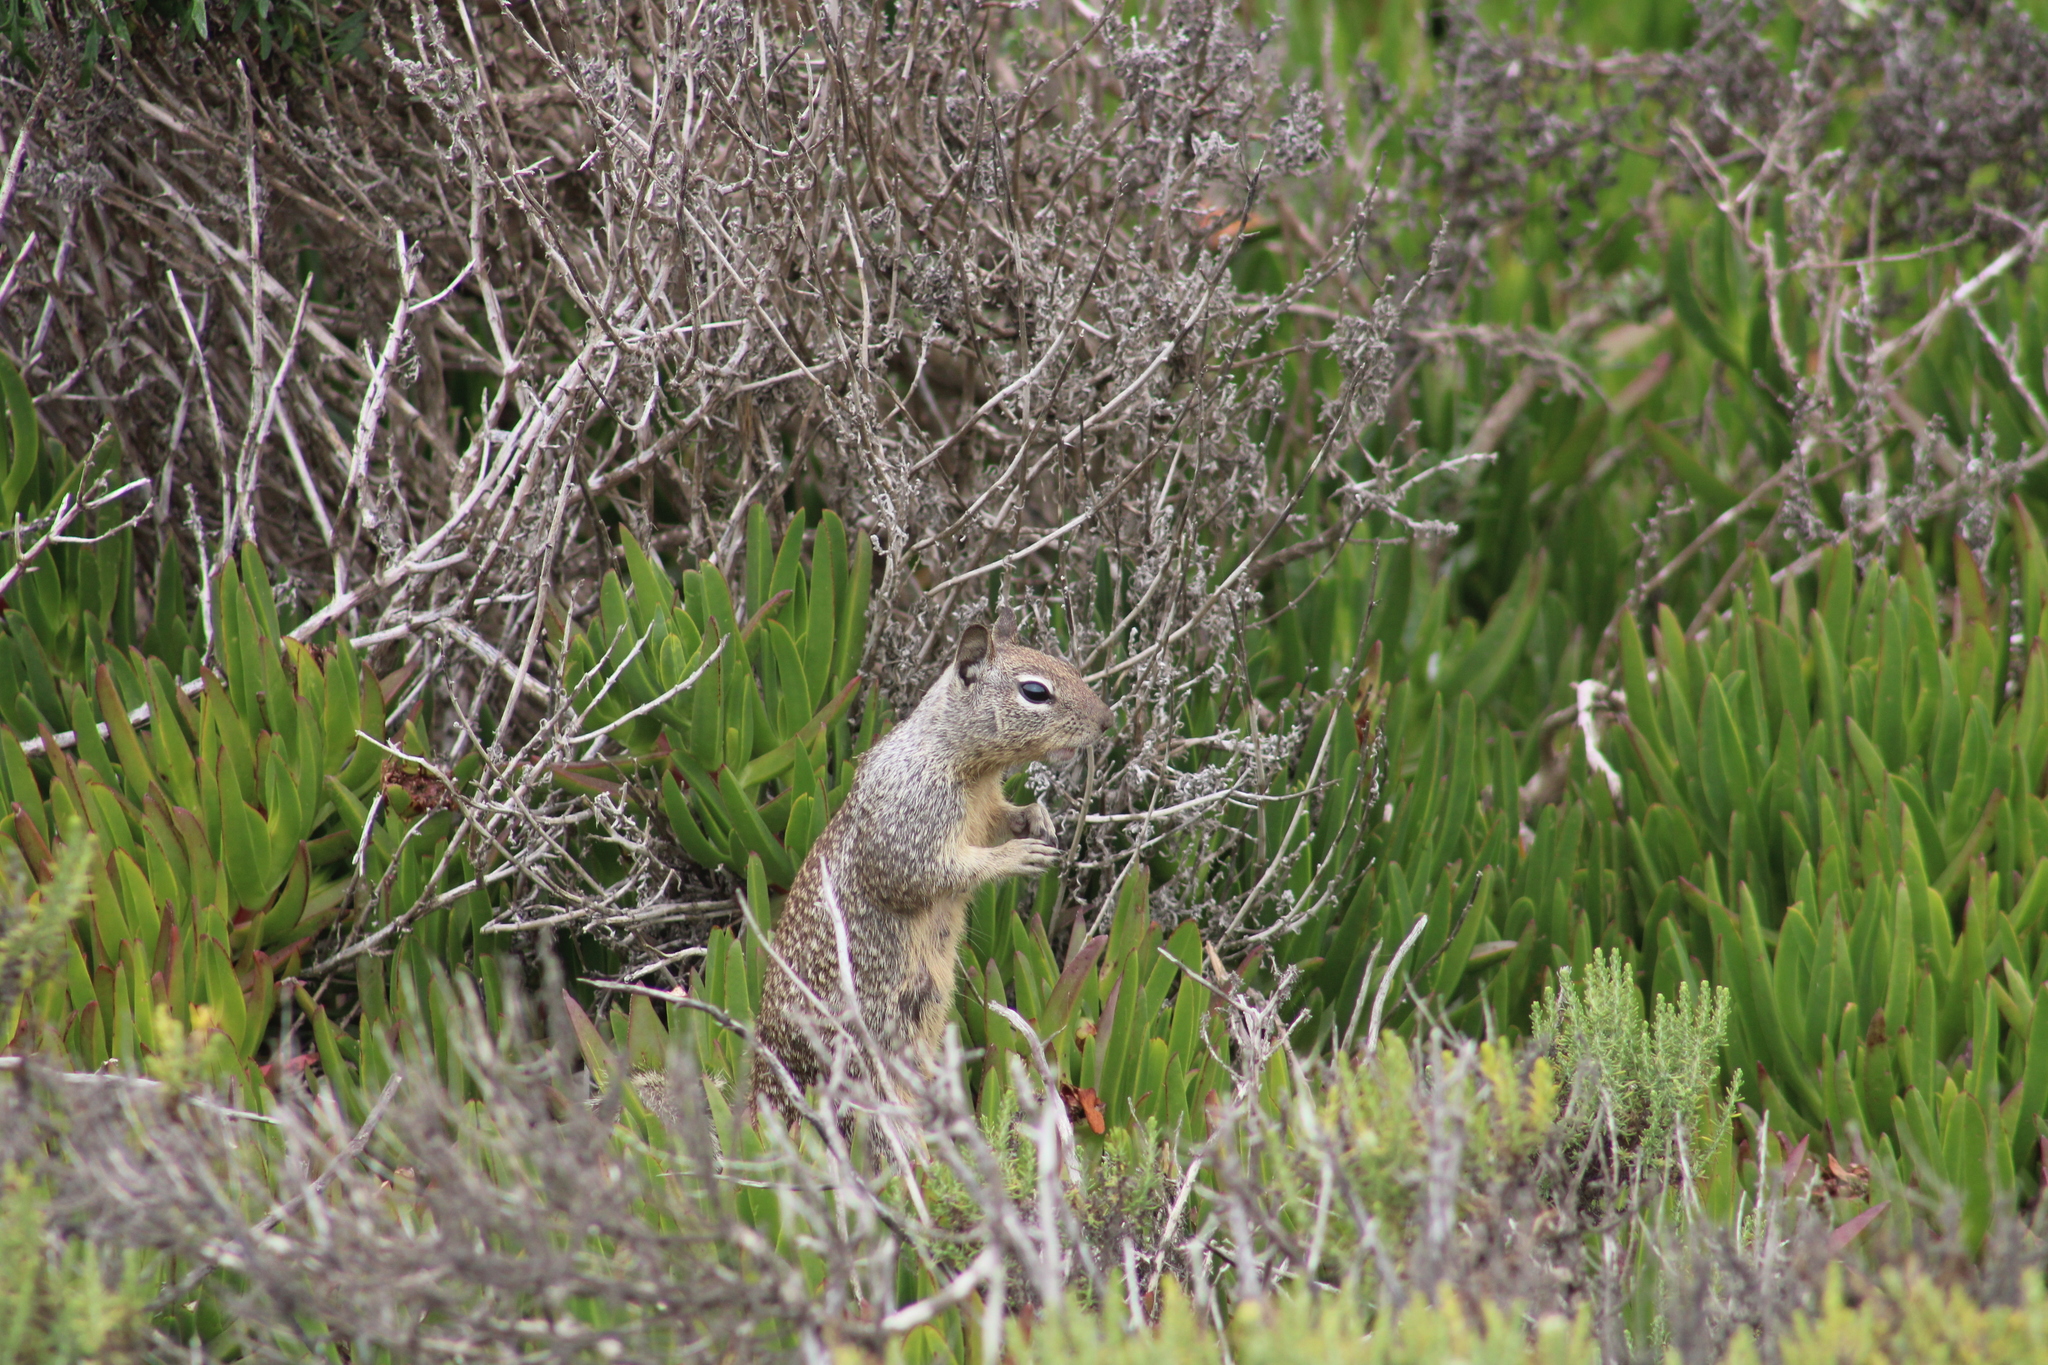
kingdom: Animalia
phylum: Chordata
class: Mammalia
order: Rodentia
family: Sciuridae
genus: Otospermophilus
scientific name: Otospermophilus beecheyi
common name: California ground squirrel
